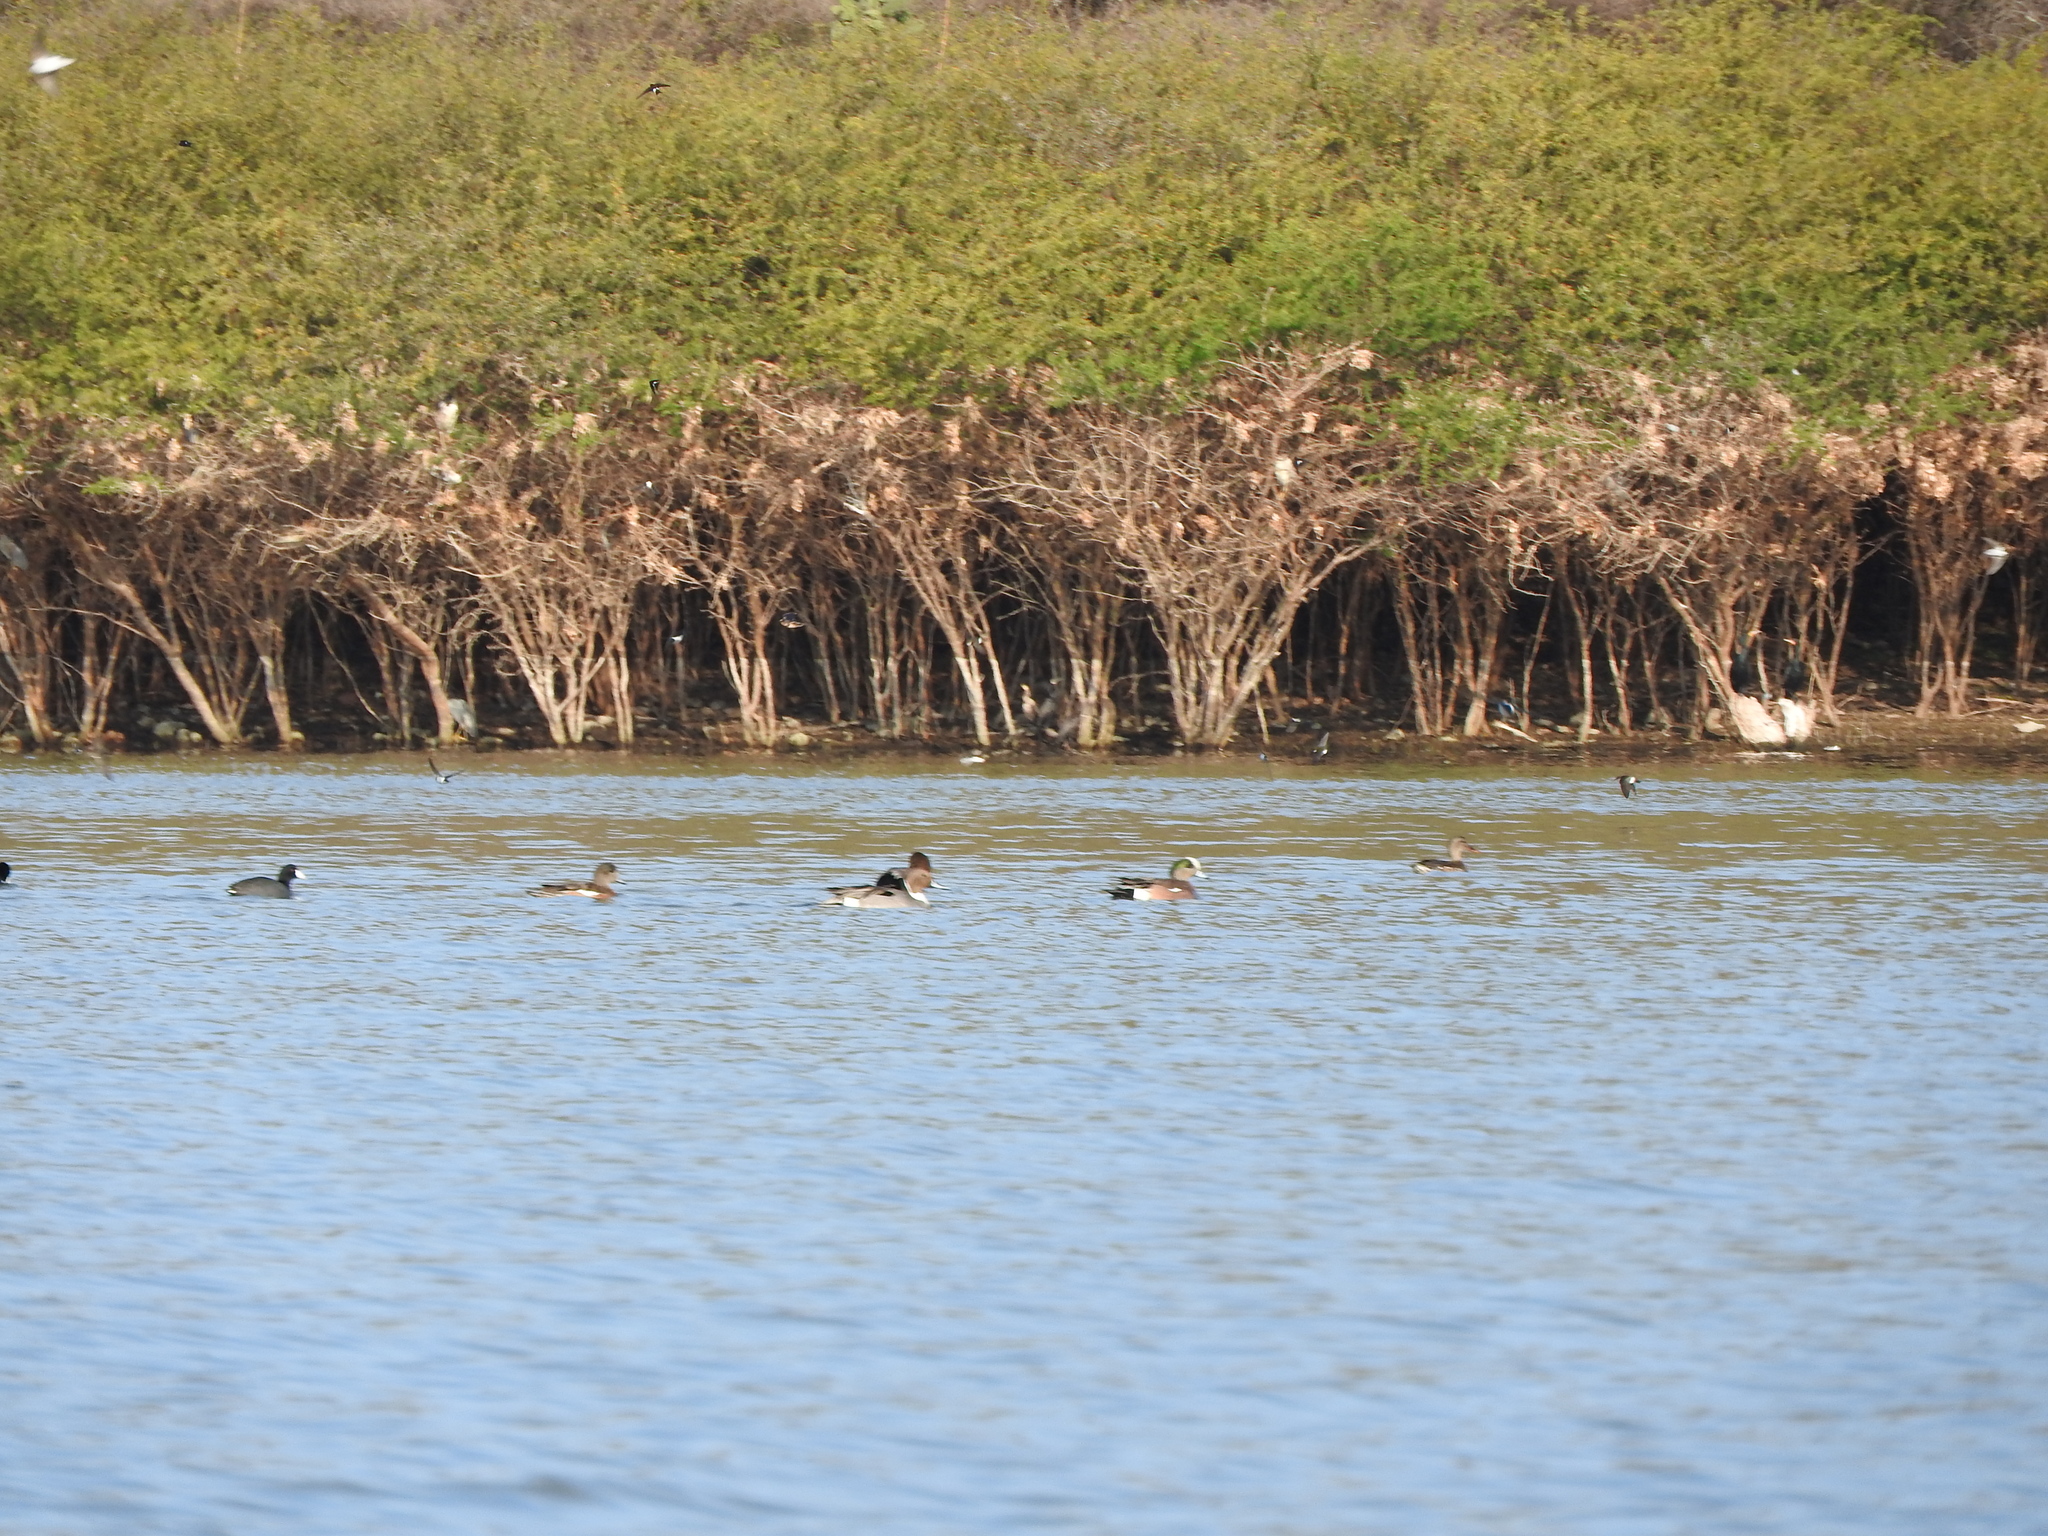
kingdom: Animalia
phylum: Chordata
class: Aves
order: Gruiformes
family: Rallidae
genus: Fulica
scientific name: Fulica americana
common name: American coot
